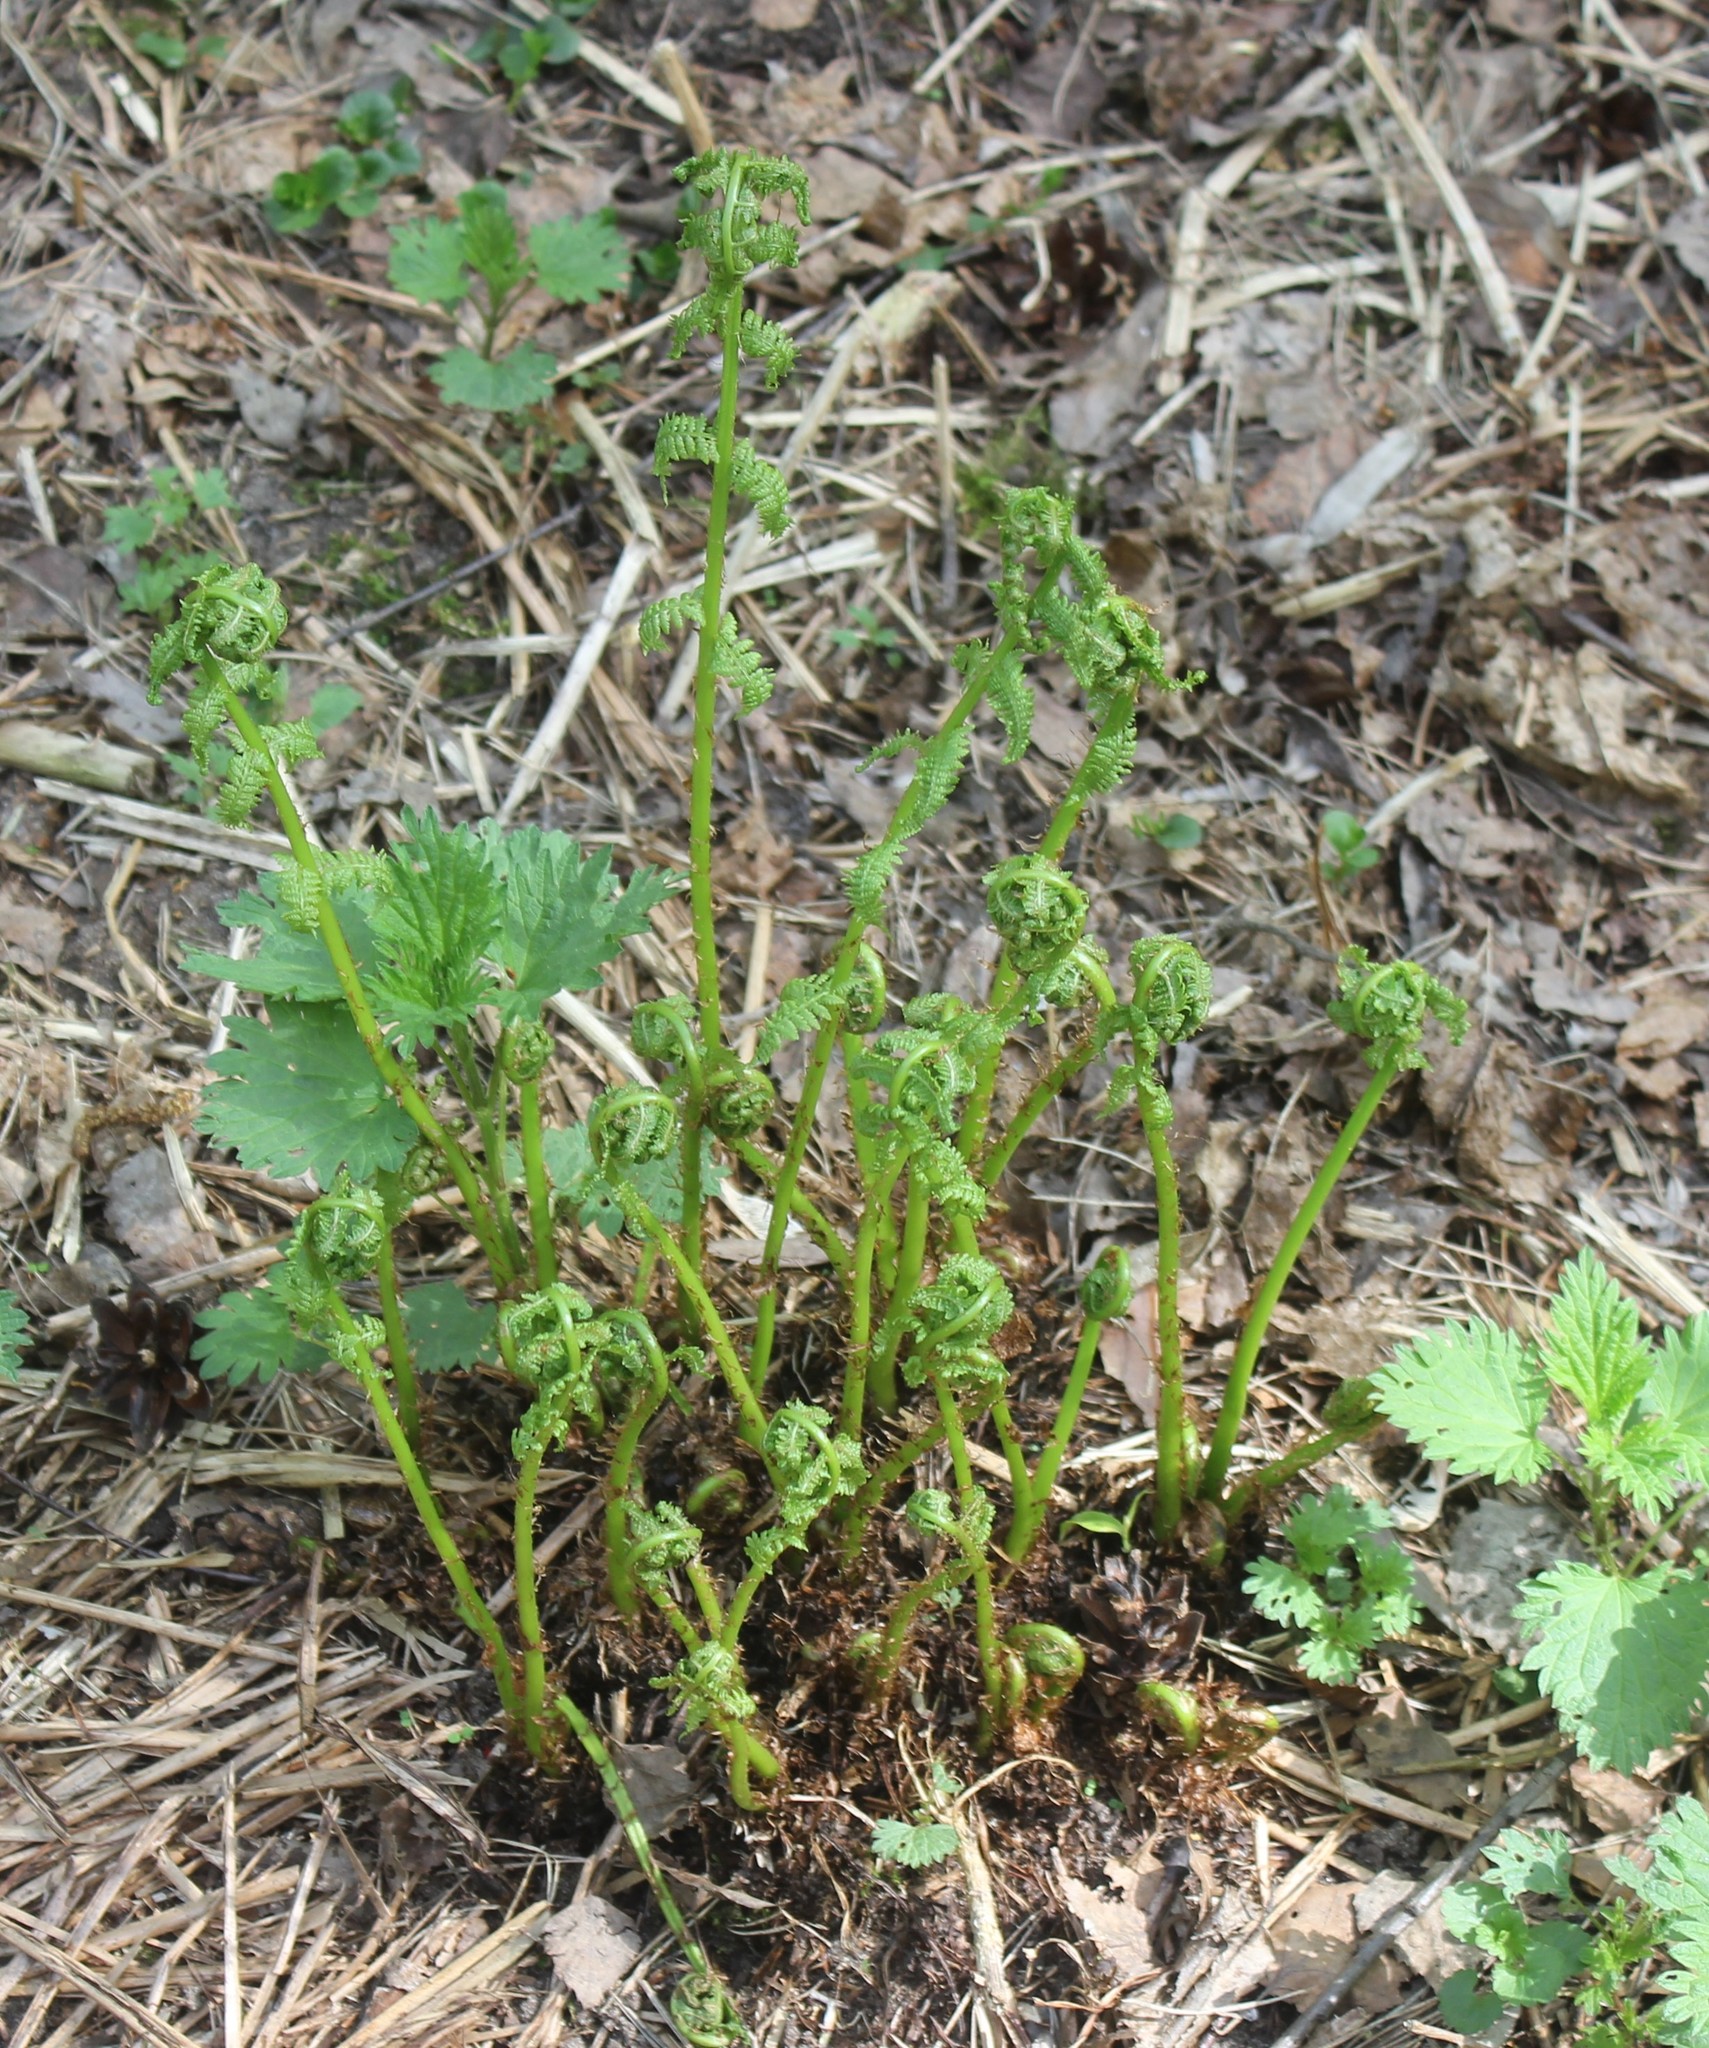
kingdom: Plantae
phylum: Tracheophyta
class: Polypodiopsida
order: Polypodiales
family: Athyriaceae
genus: Athyrium
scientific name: Athyrium filix-femina
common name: Lady fern
